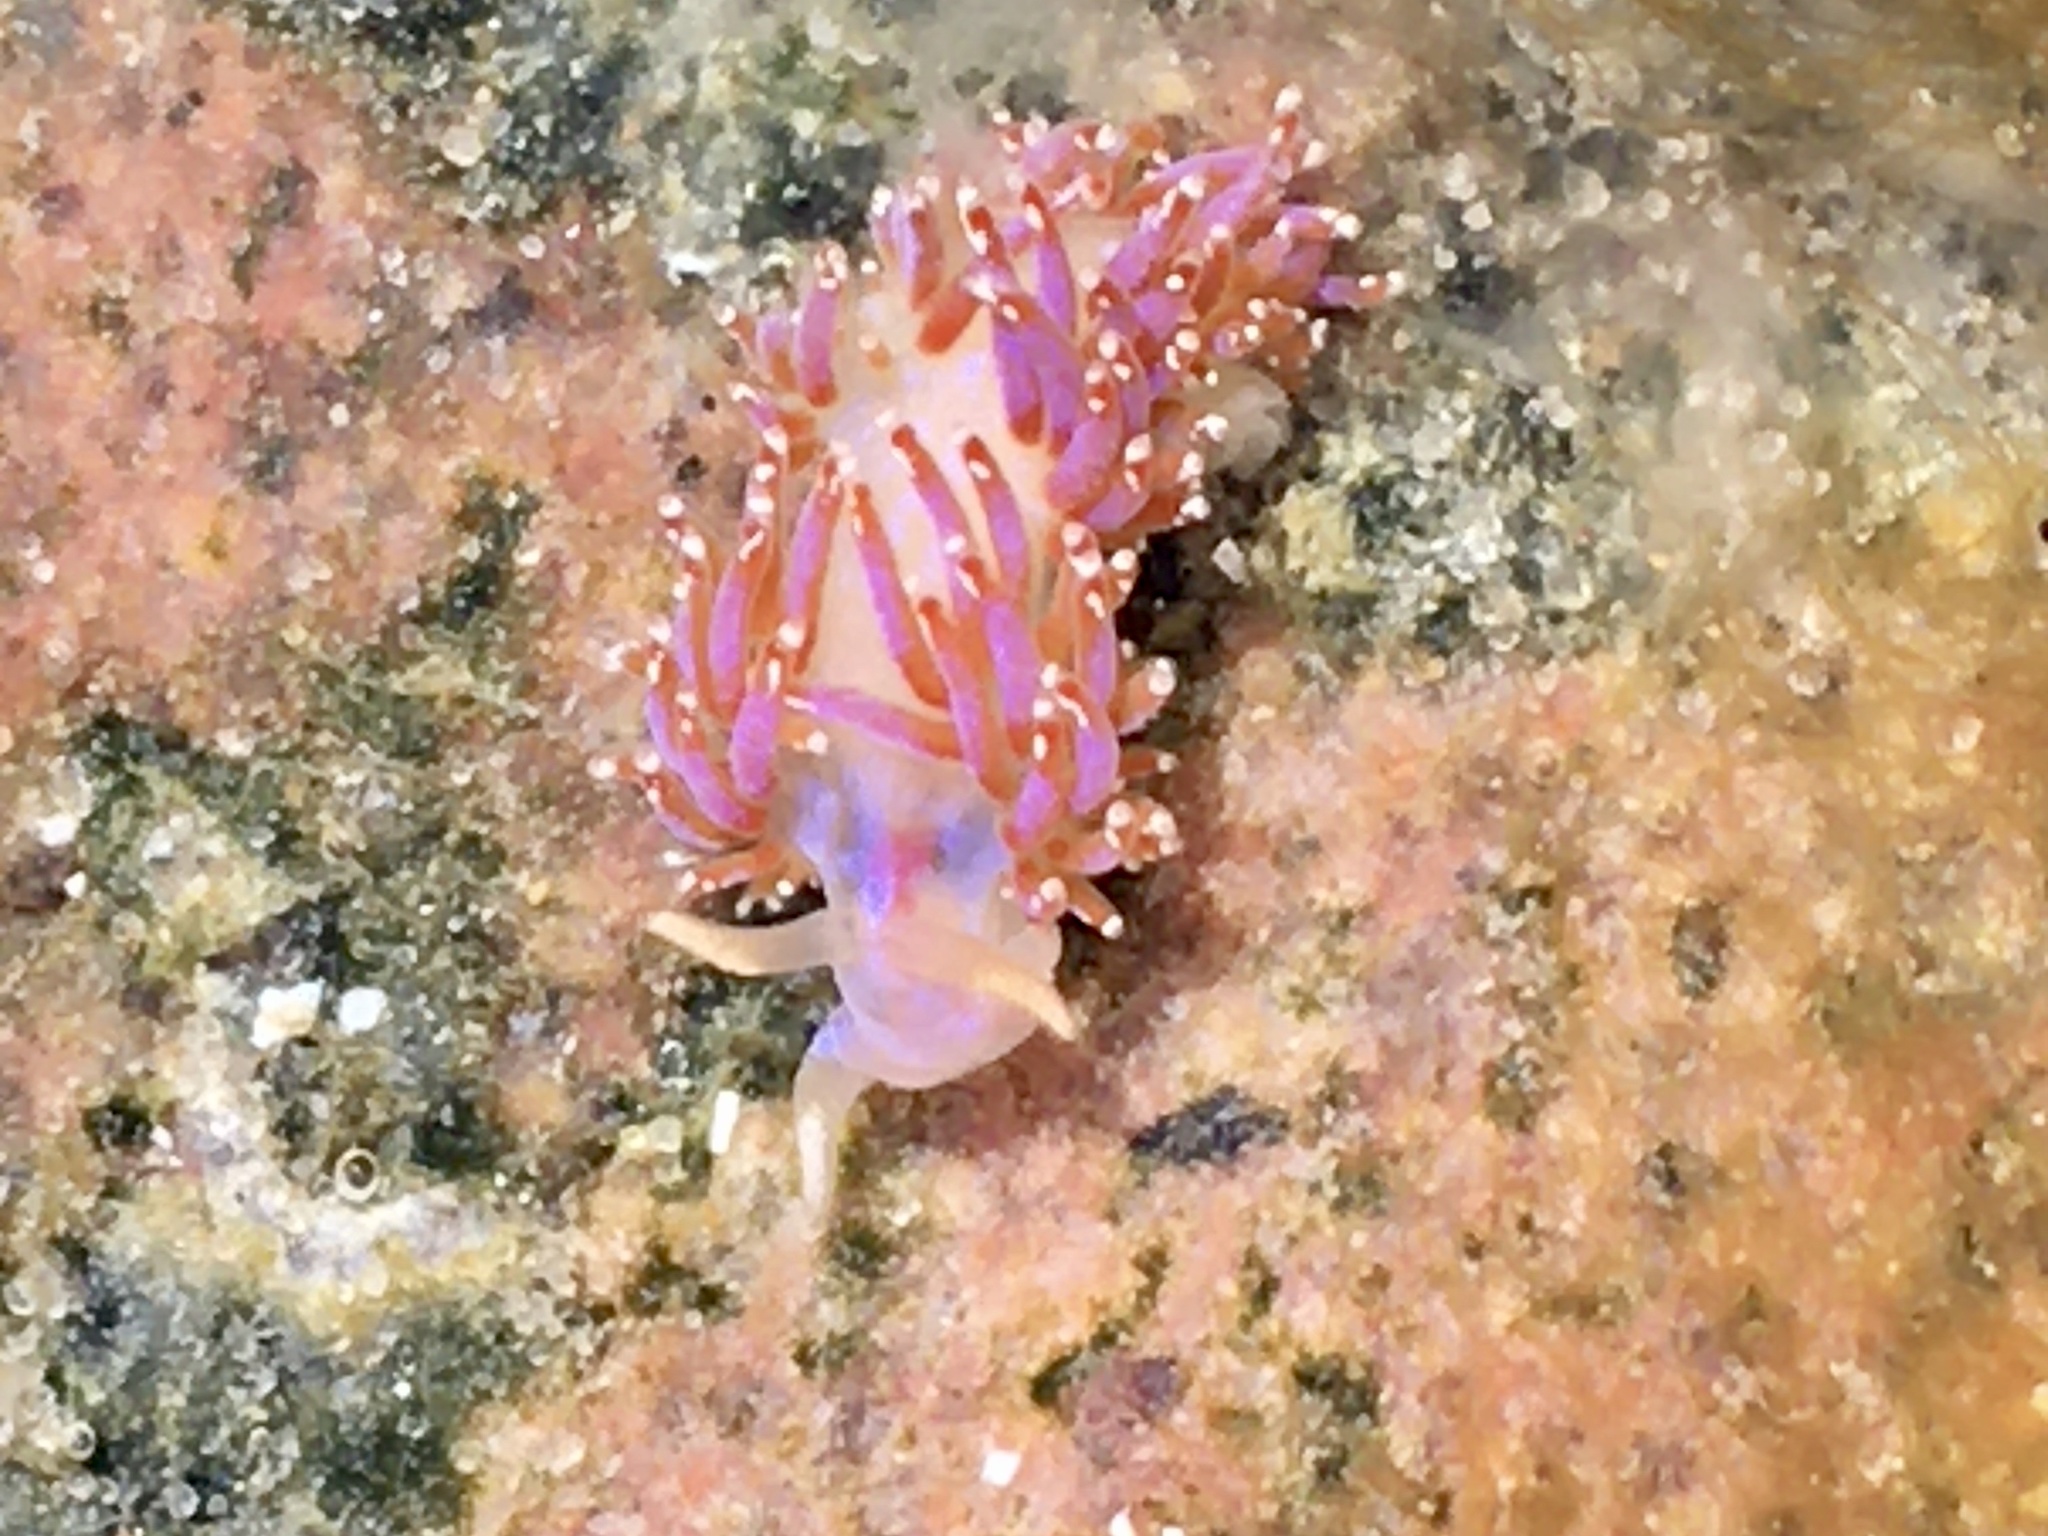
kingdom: Animalia
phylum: Mollusca
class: Gastropoda
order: Nudibranchia
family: Facelinidae
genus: Facelina
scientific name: Facelina auriculata
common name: Slender facelina
